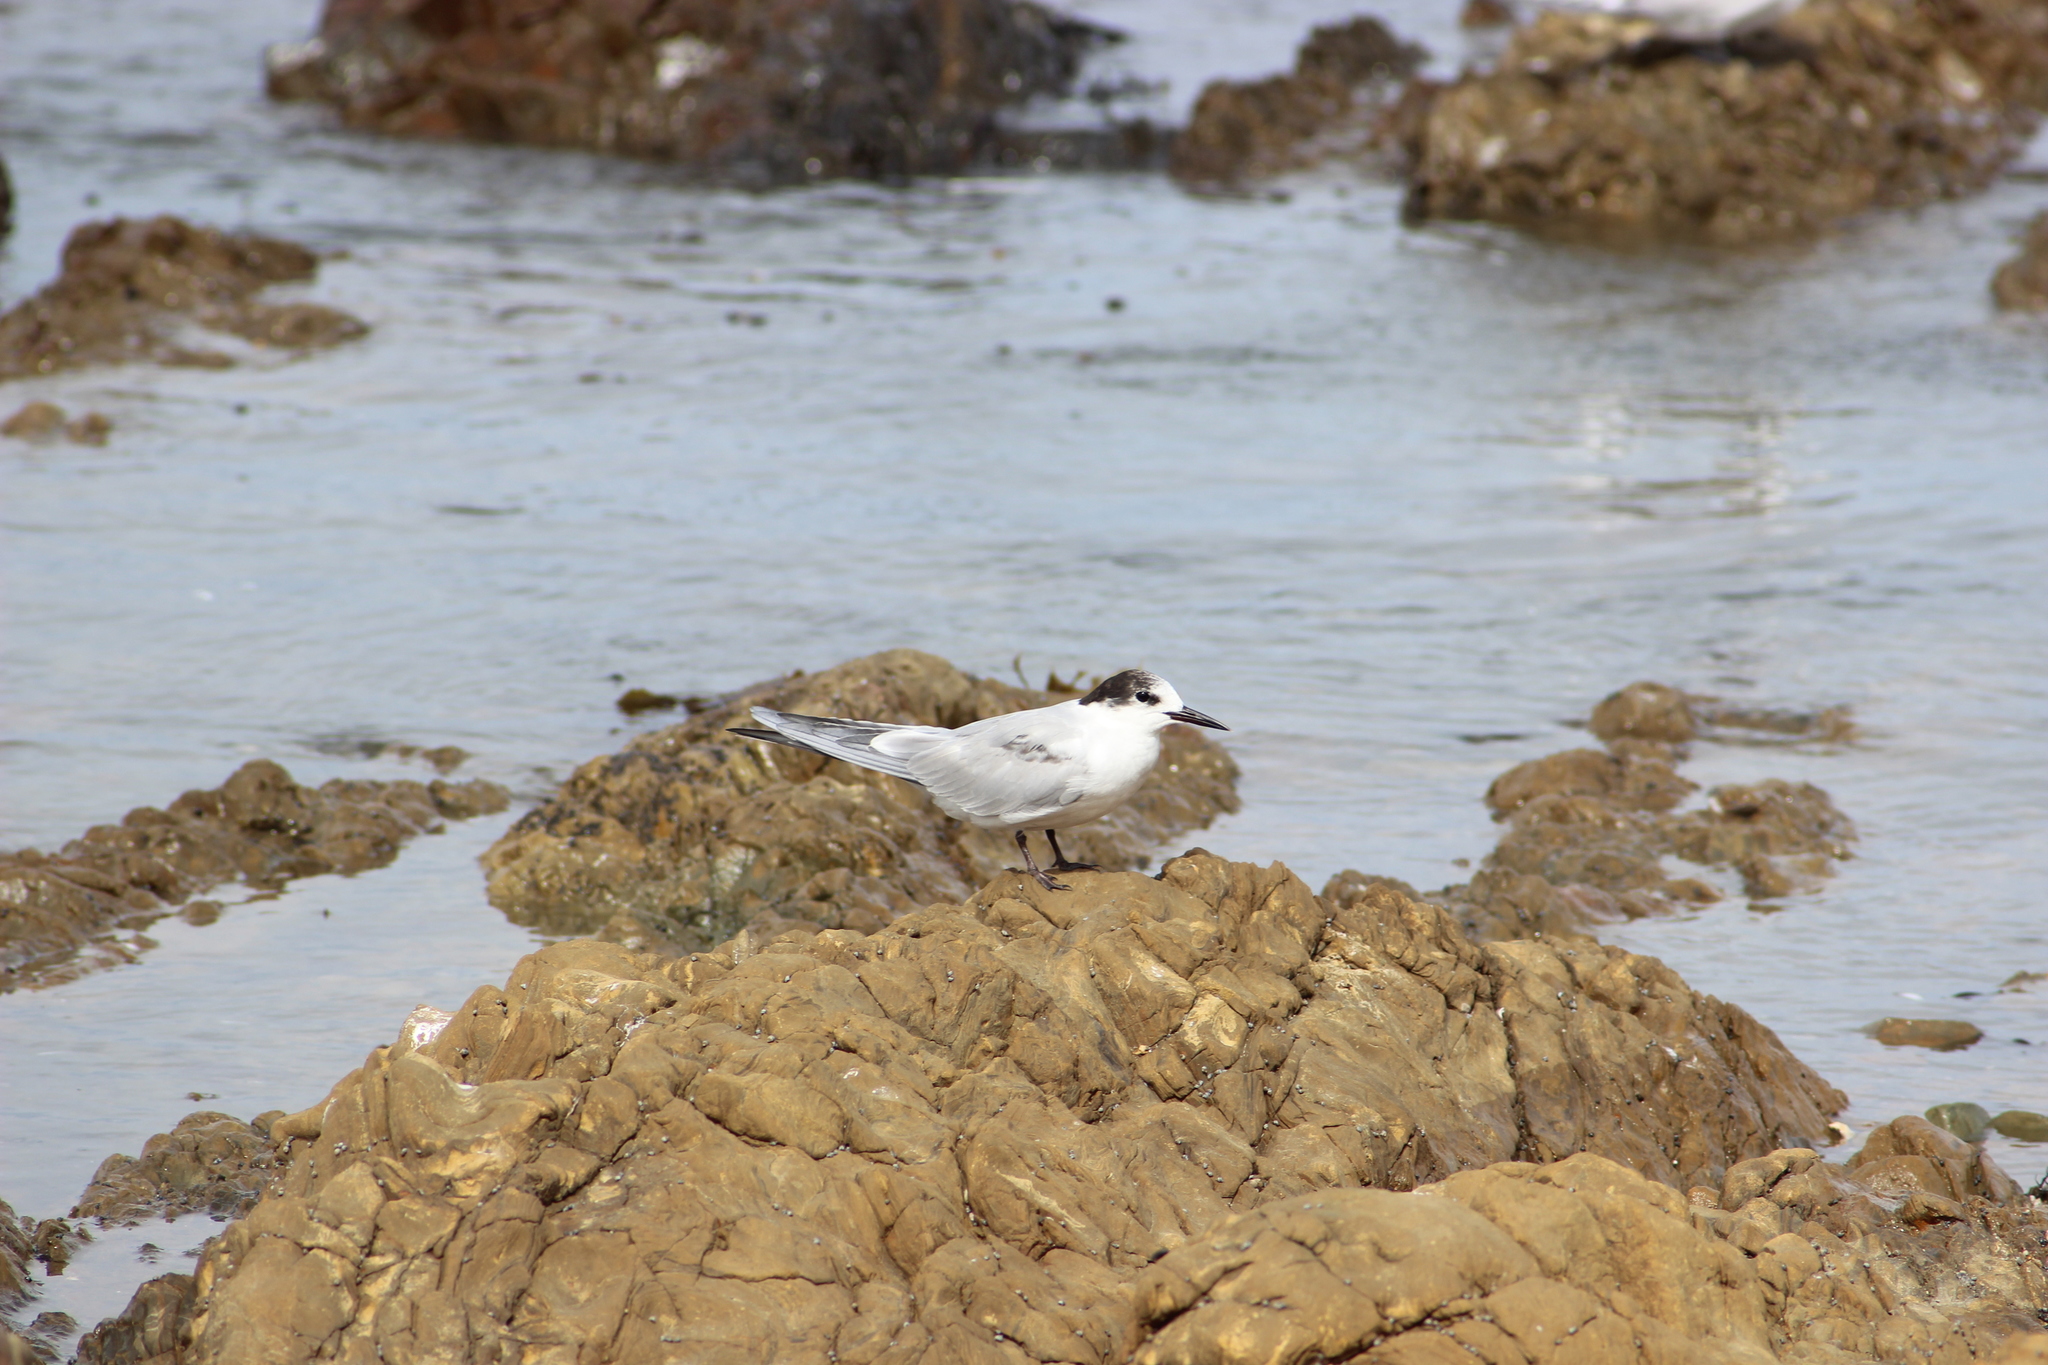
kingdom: Animalia
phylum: Chordata
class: Aves
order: Charadriiformes
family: Laridae
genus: Sterna
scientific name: Sterna hirundo
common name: Common tern
